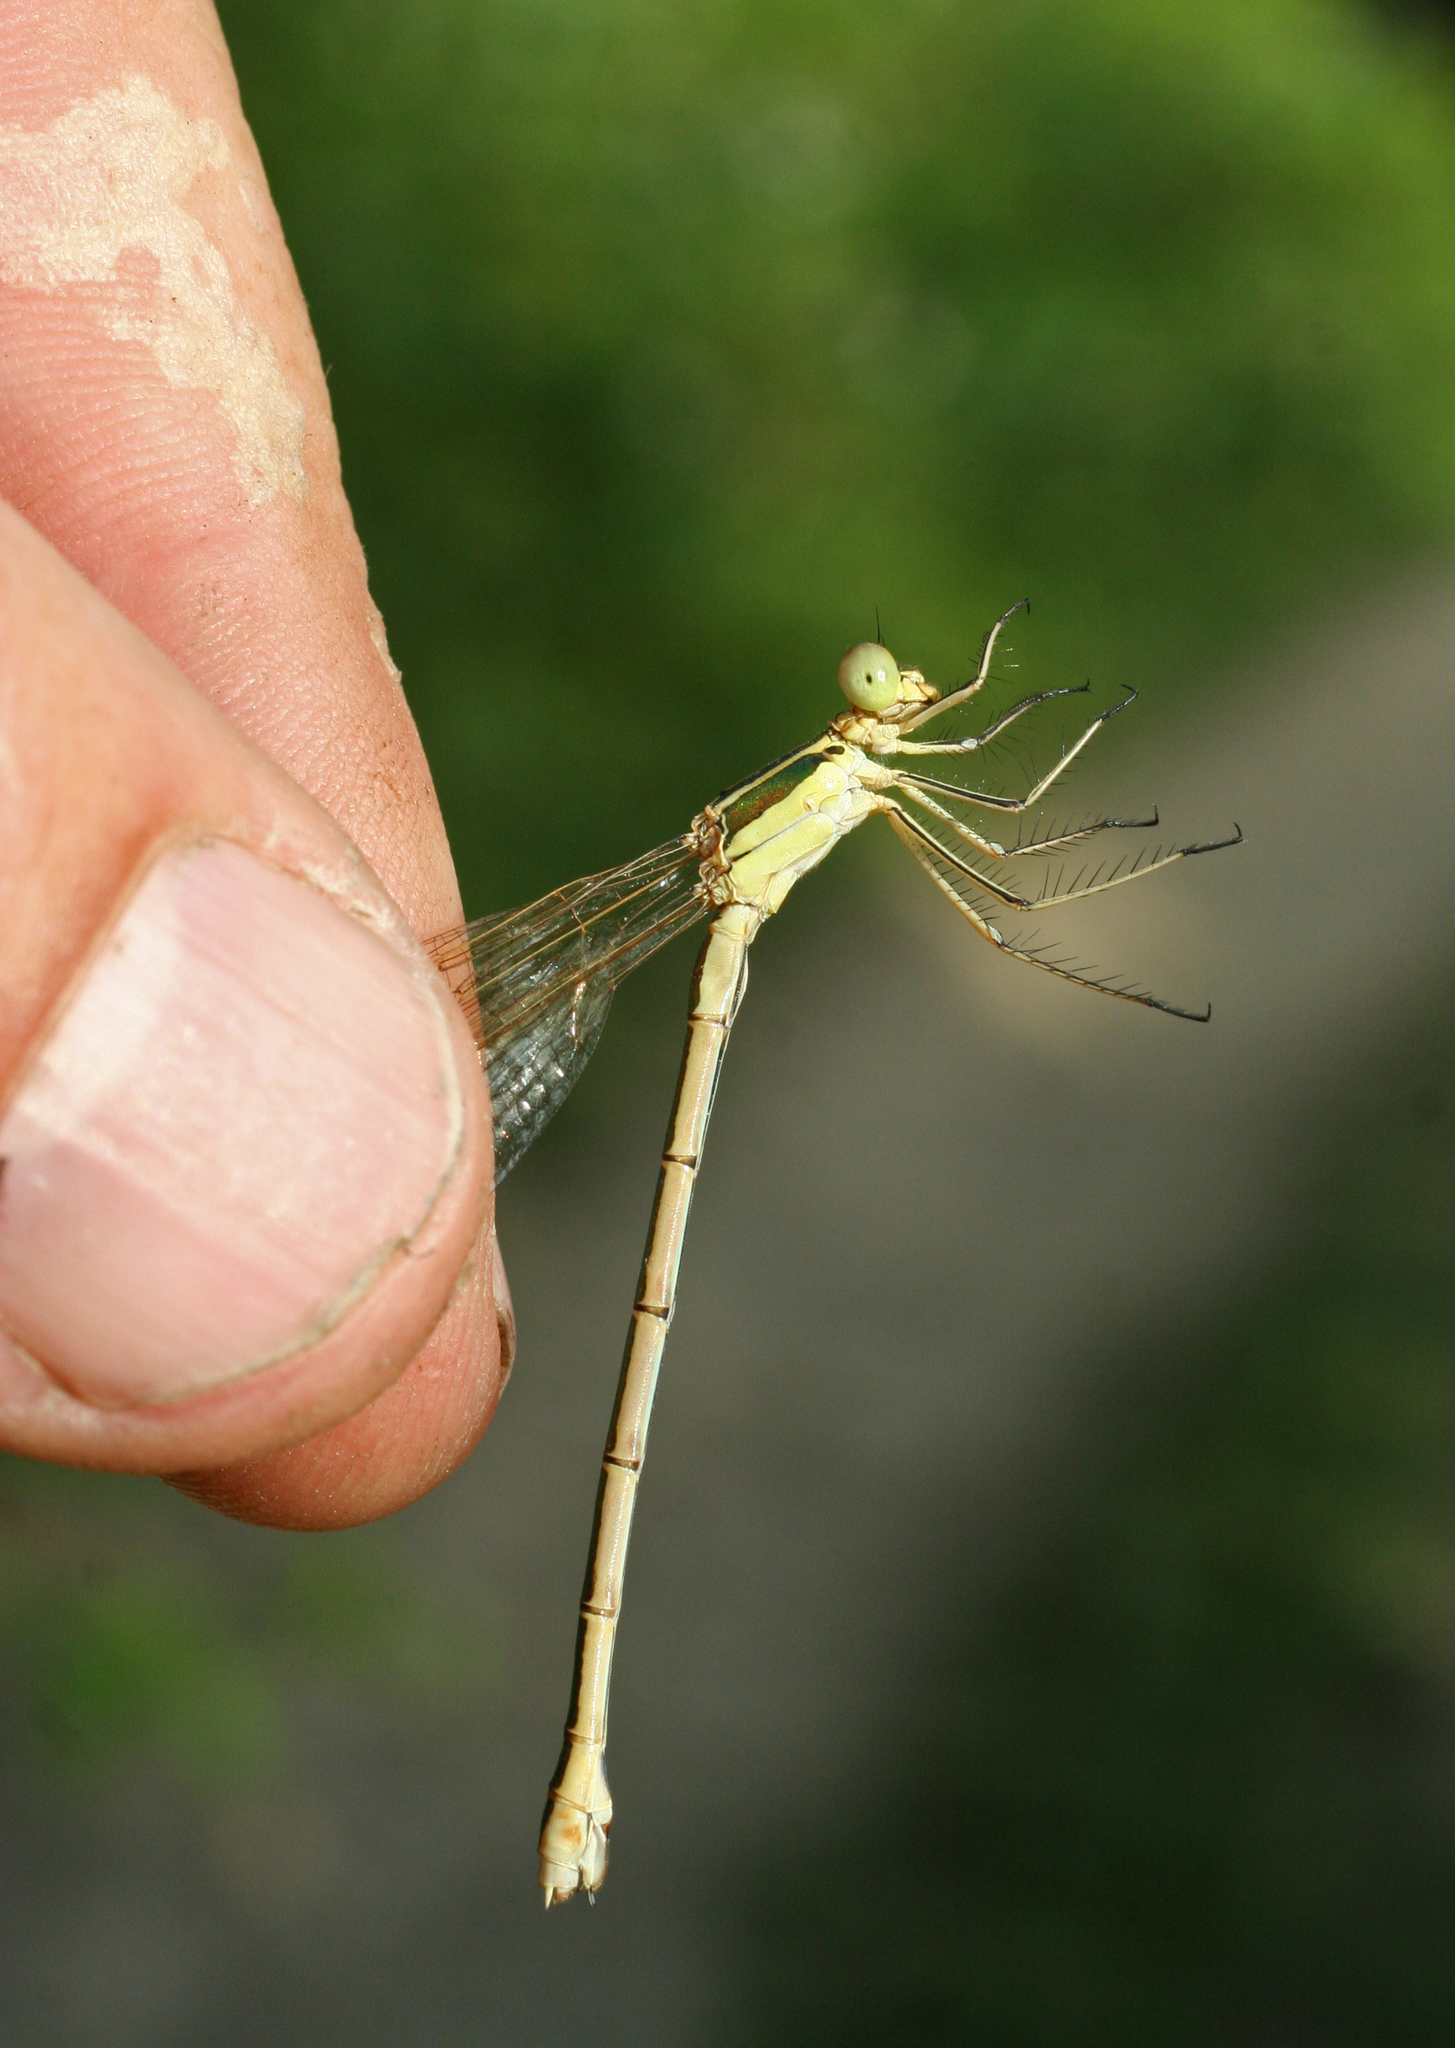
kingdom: Animalia
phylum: Arthropoda
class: Insecta
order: Odonata
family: Lestidae
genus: Lestes
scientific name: Lestes barbarus
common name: Migrant spreadwing
